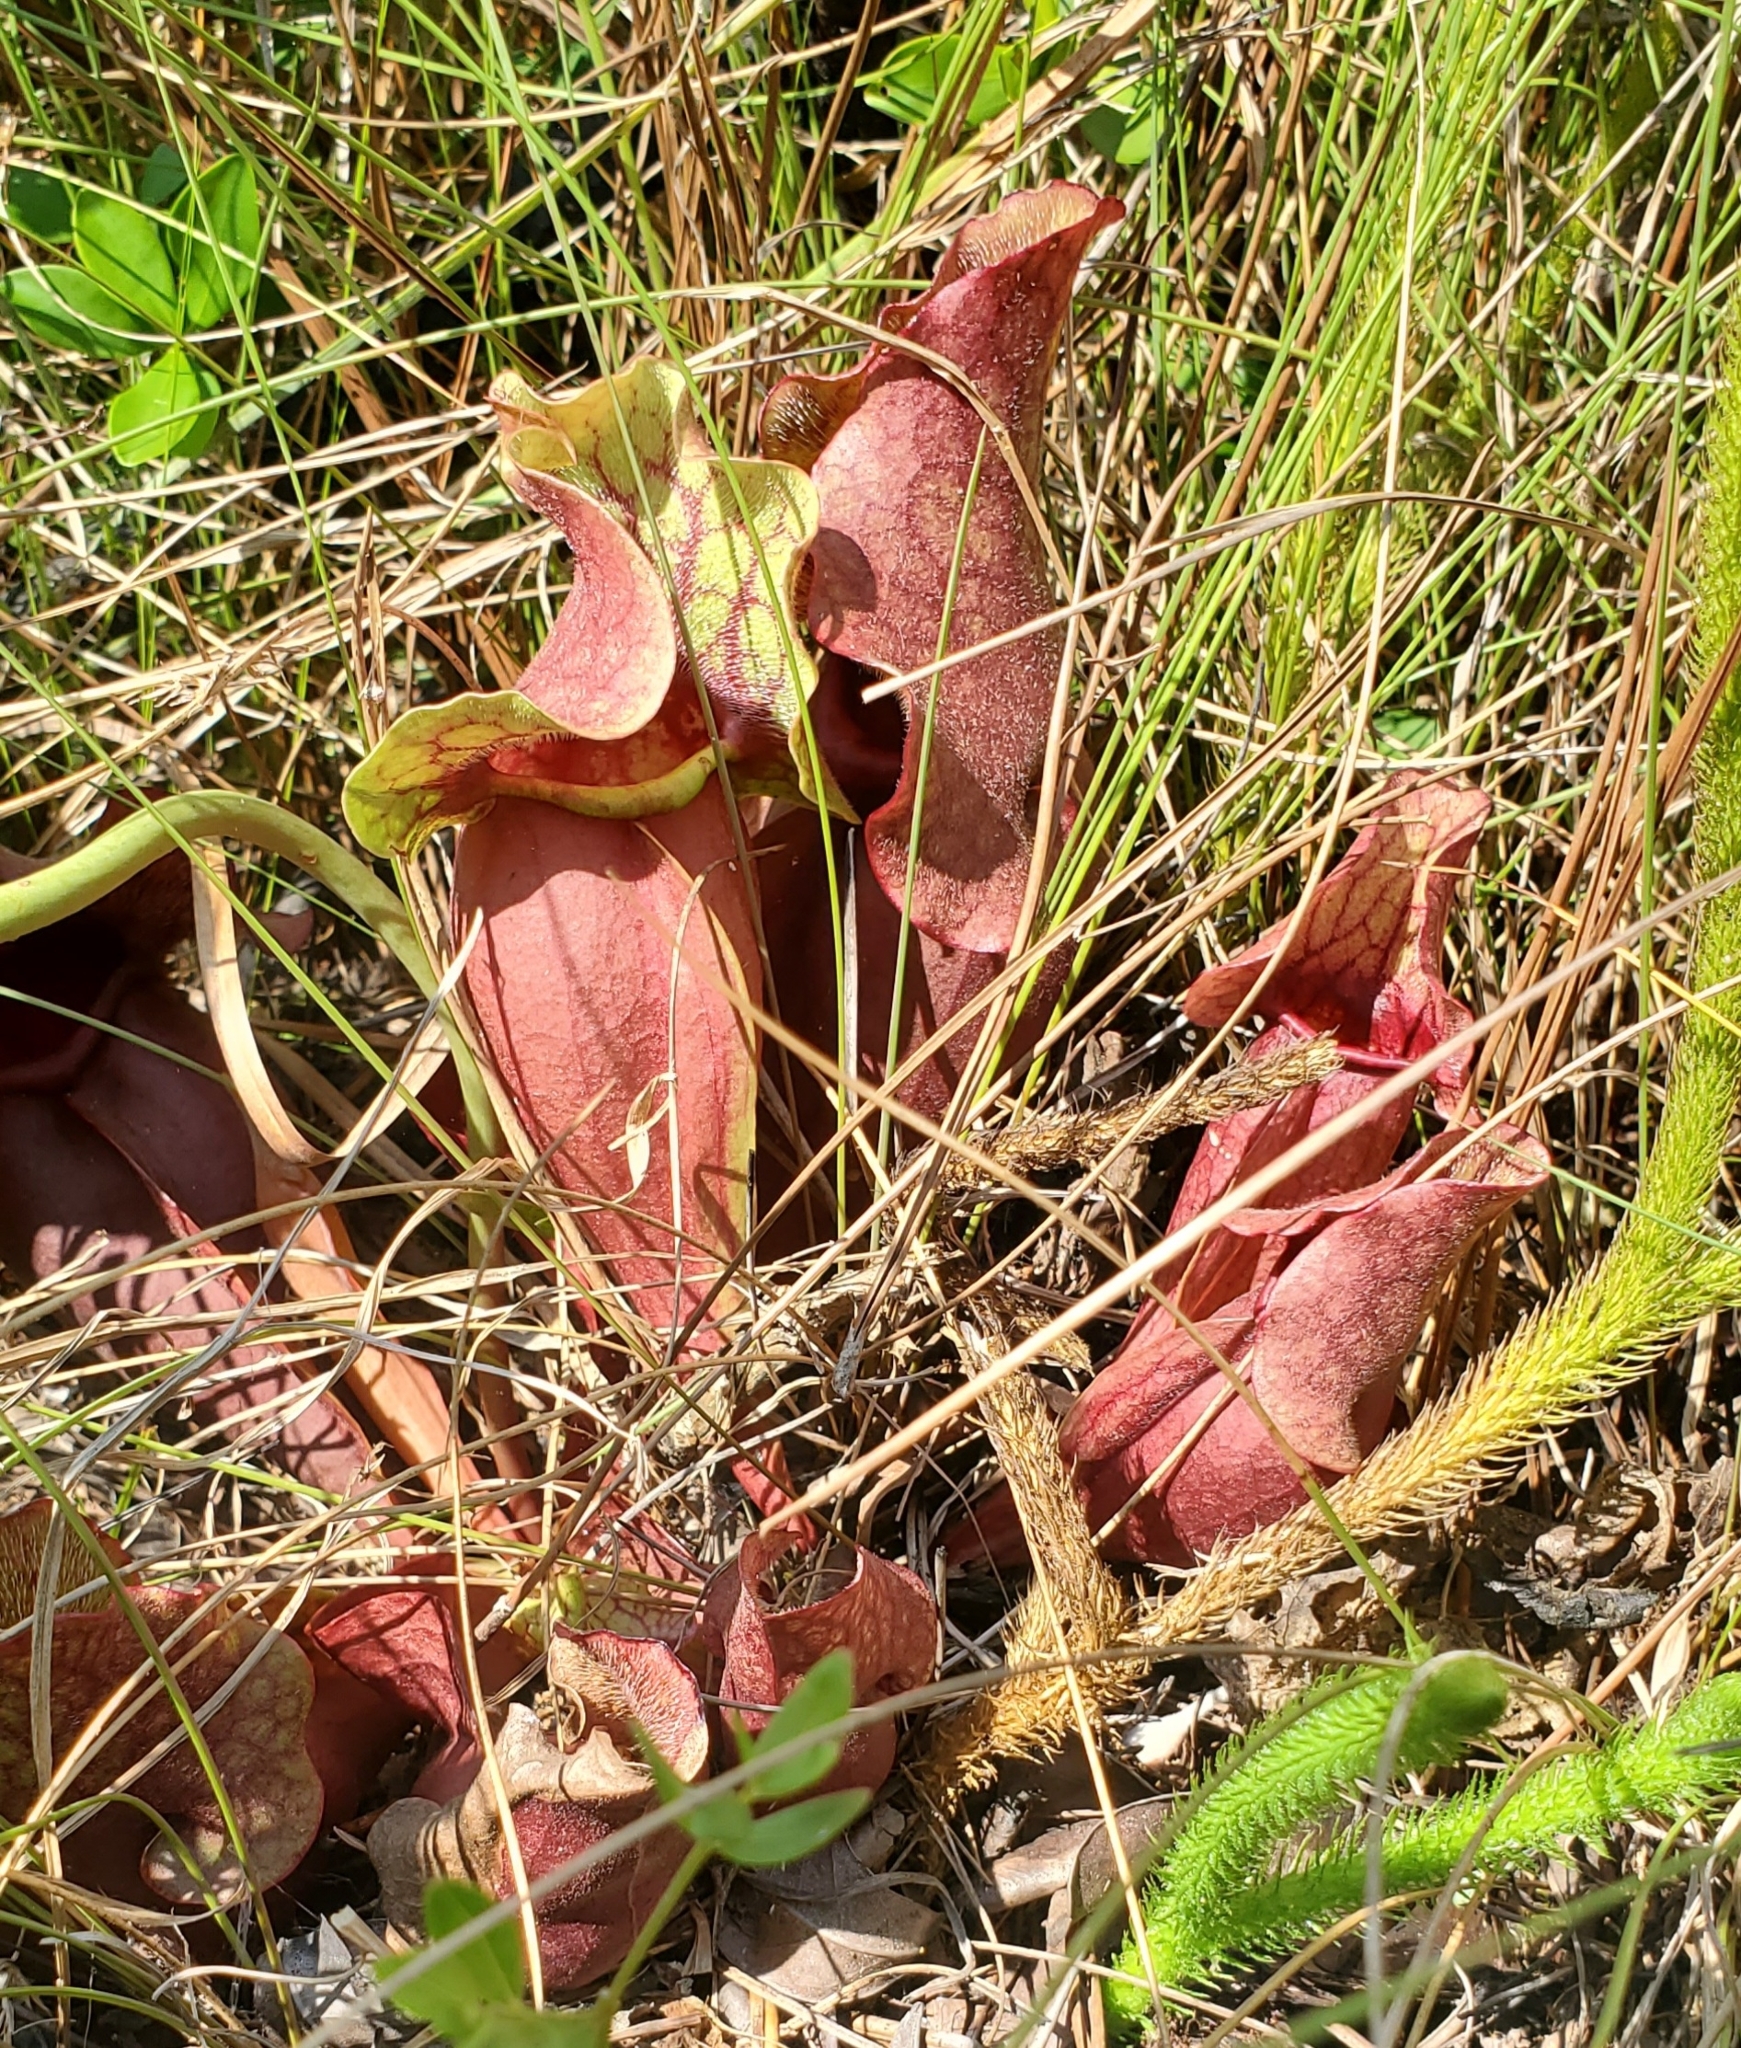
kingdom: Plantae
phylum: Tracheophyta
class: Magnoliopsida
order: Ericales
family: Sarraceniaceae
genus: Sarracenia
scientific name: Sarracenia rosea
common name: Pink pitcherplant
